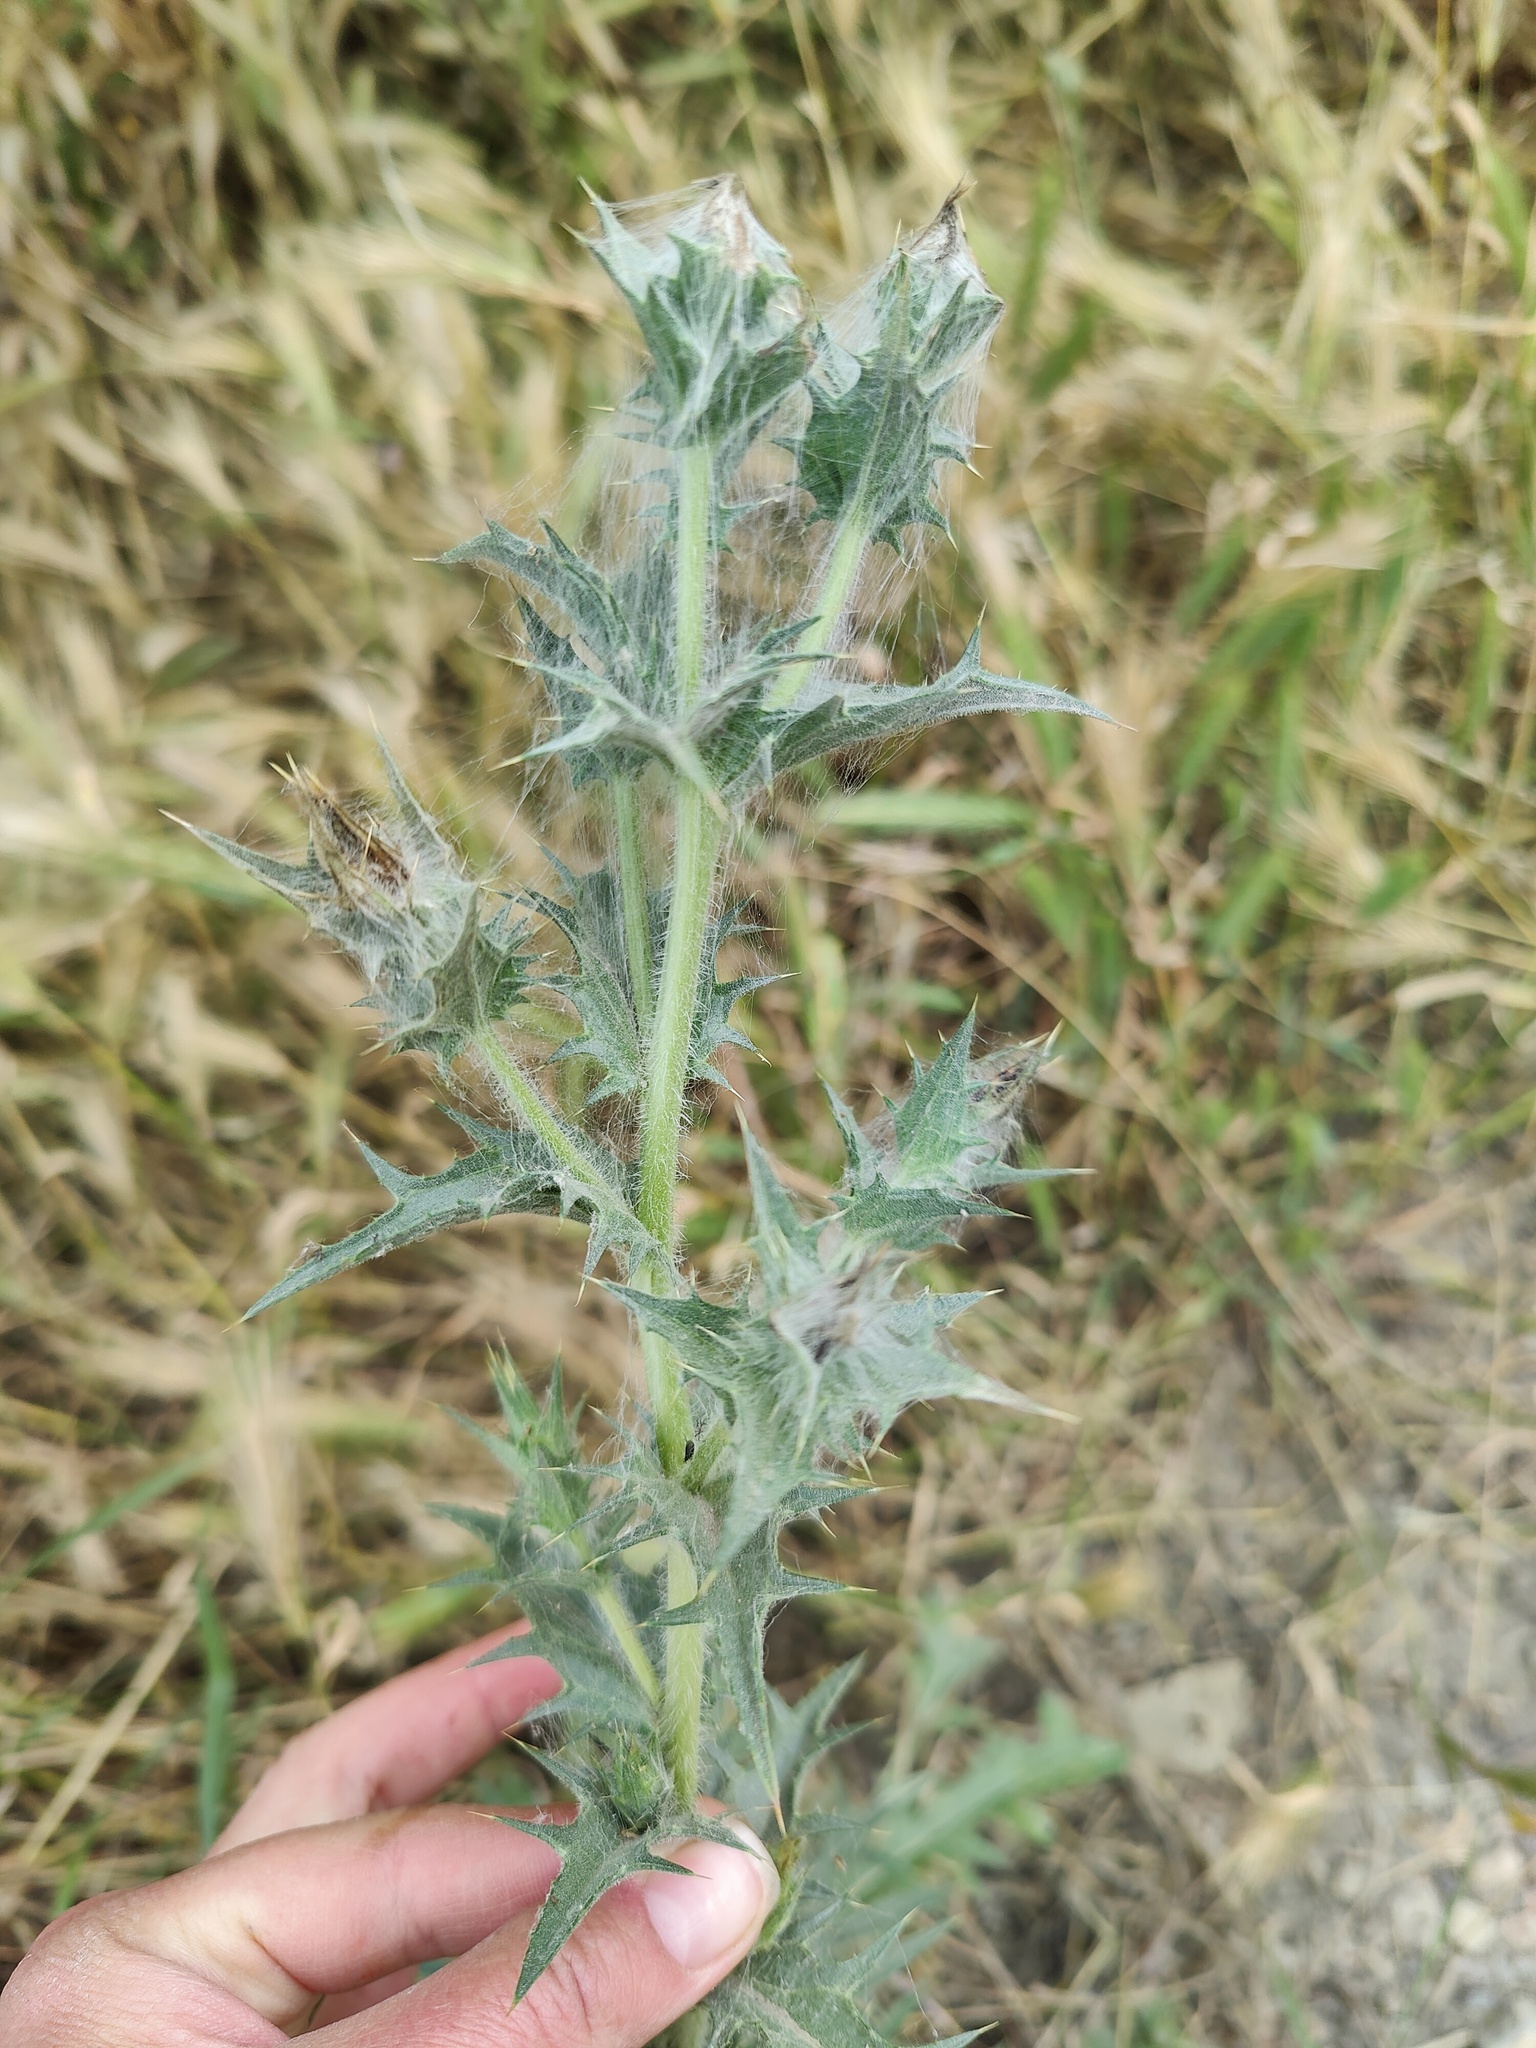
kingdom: Plantae
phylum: Tracheophyta
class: Magnoliopsida
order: Asterales
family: Asteraceae
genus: Carthamus
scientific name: Carthamus lanatus
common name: Downy safflower
